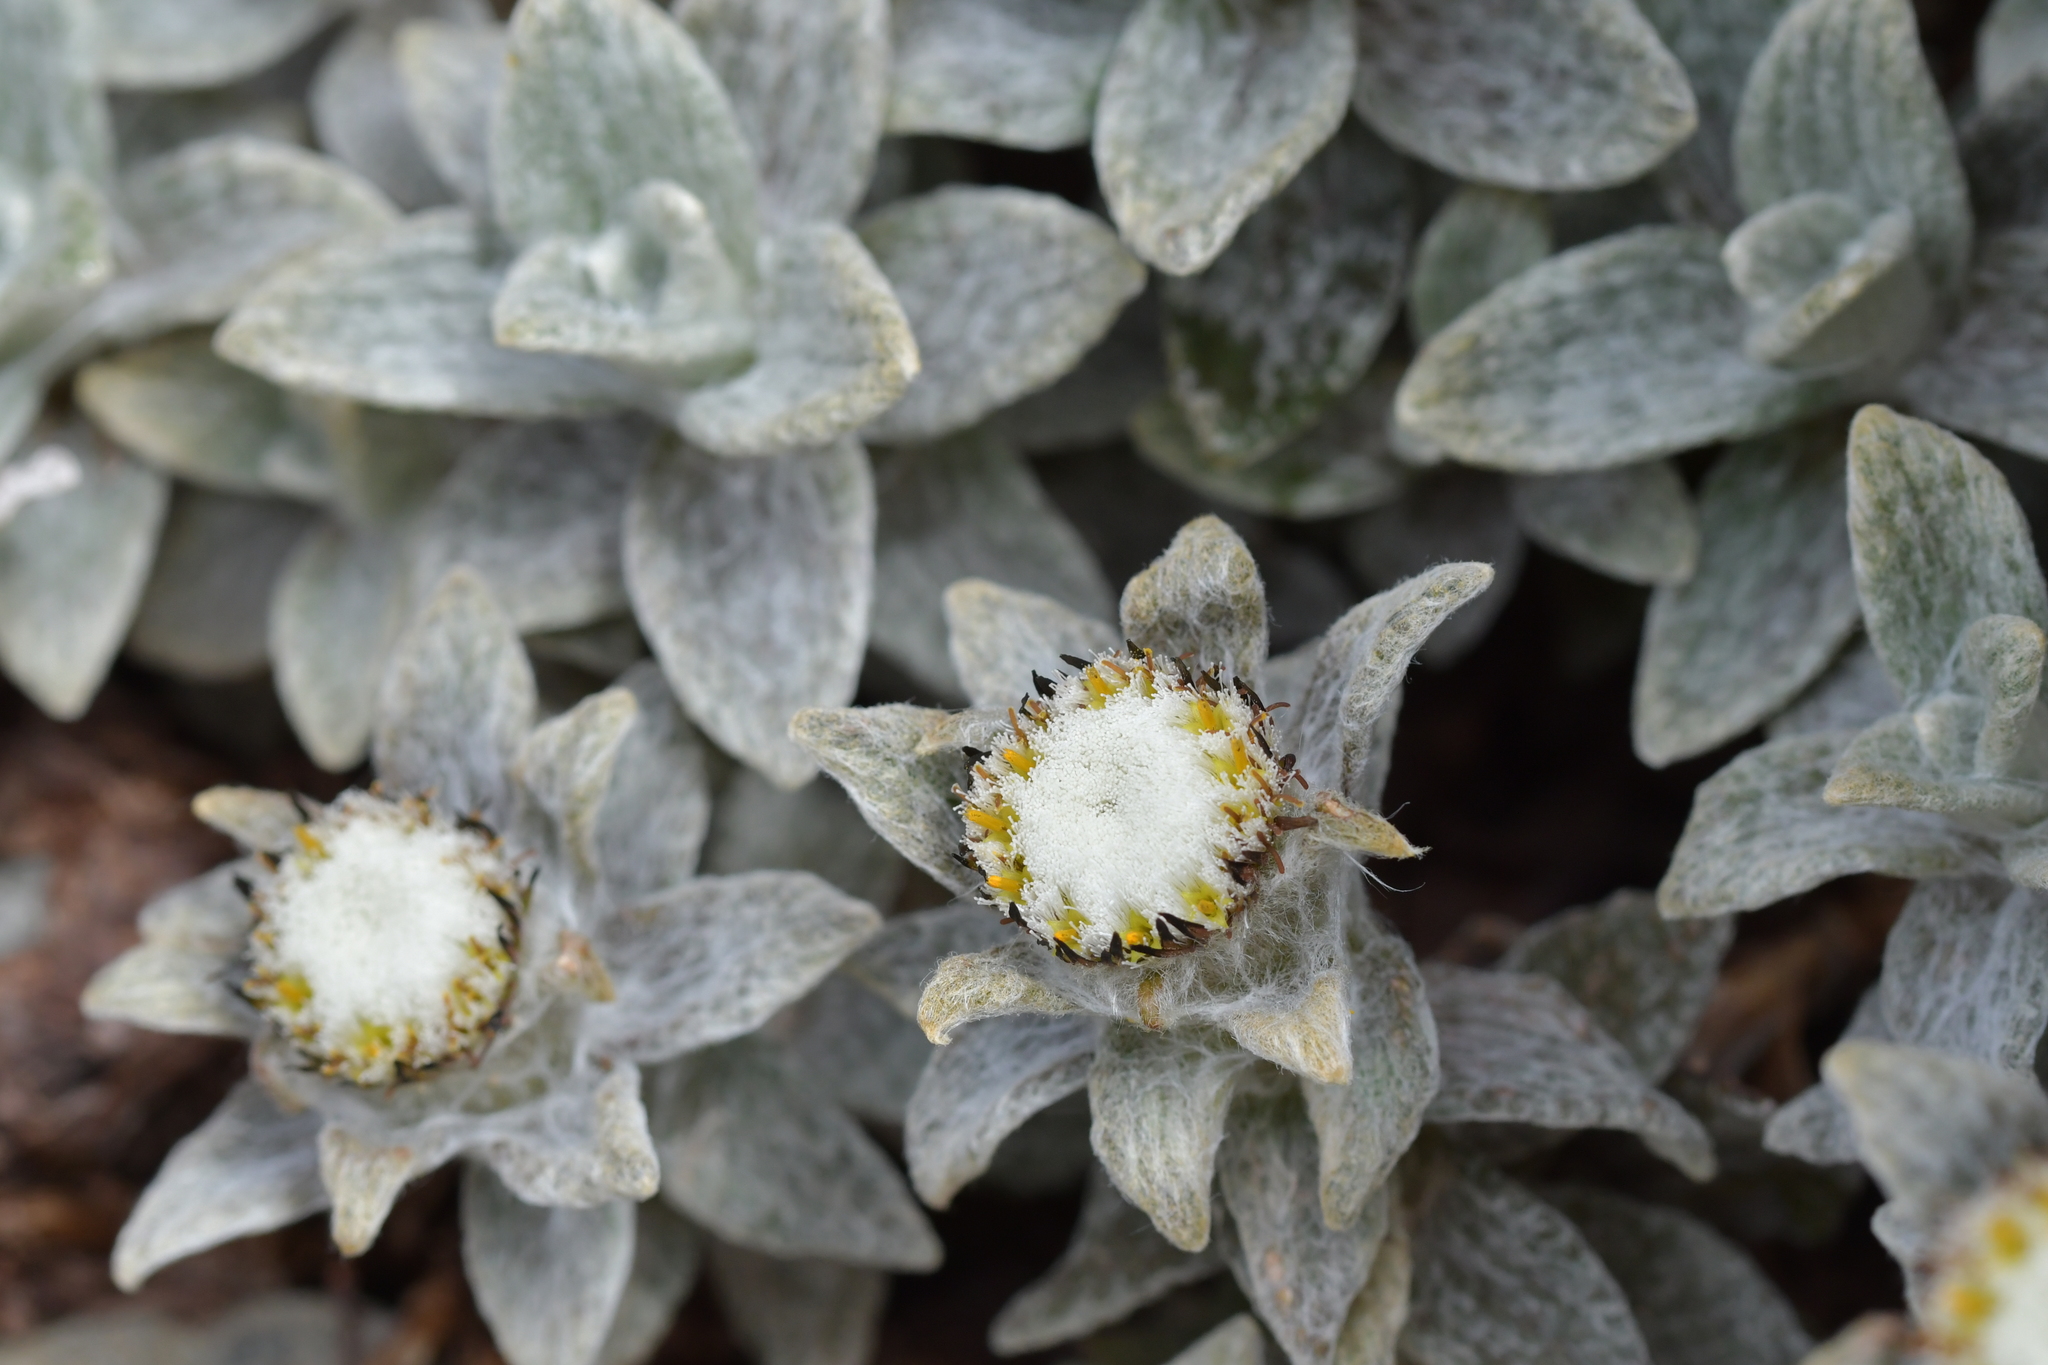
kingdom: Plantae
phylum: Tracheophyta
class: Magnoliopsida
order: Asterales
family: Asteraceae
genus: Haastia
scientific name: Haastia sinclairii
